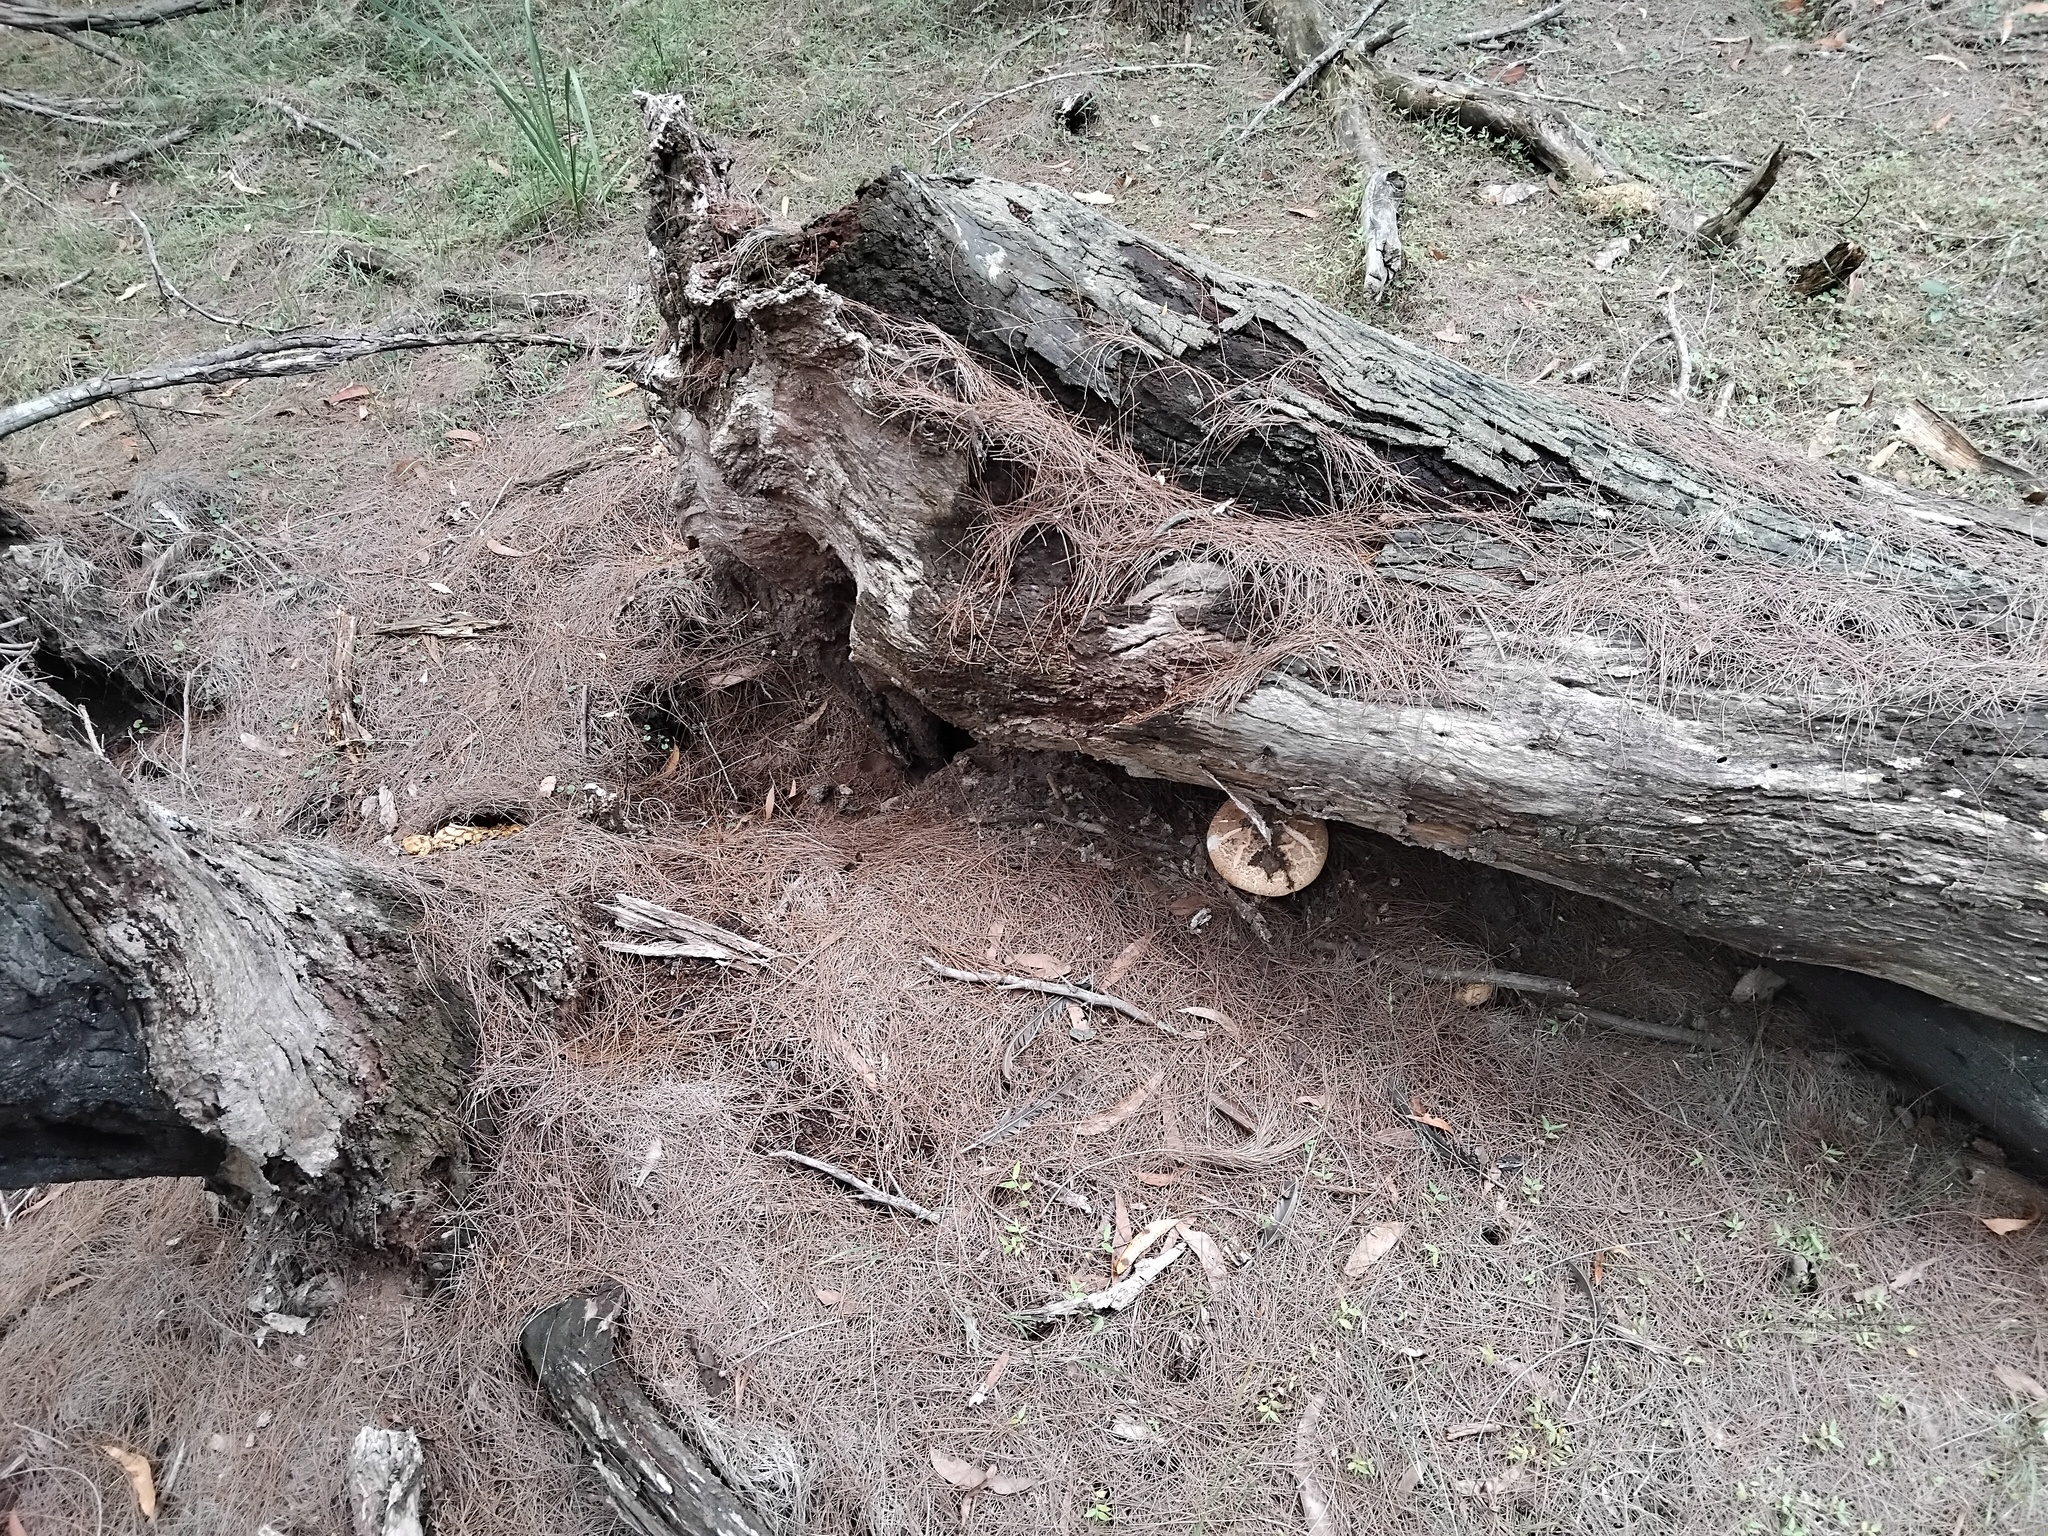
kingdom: Fungi
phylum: Basidiomycota
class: Agaricomycetes
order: Agaricales
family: Amanitaceae
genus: Amanita
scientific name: Amanita ochrophylla
